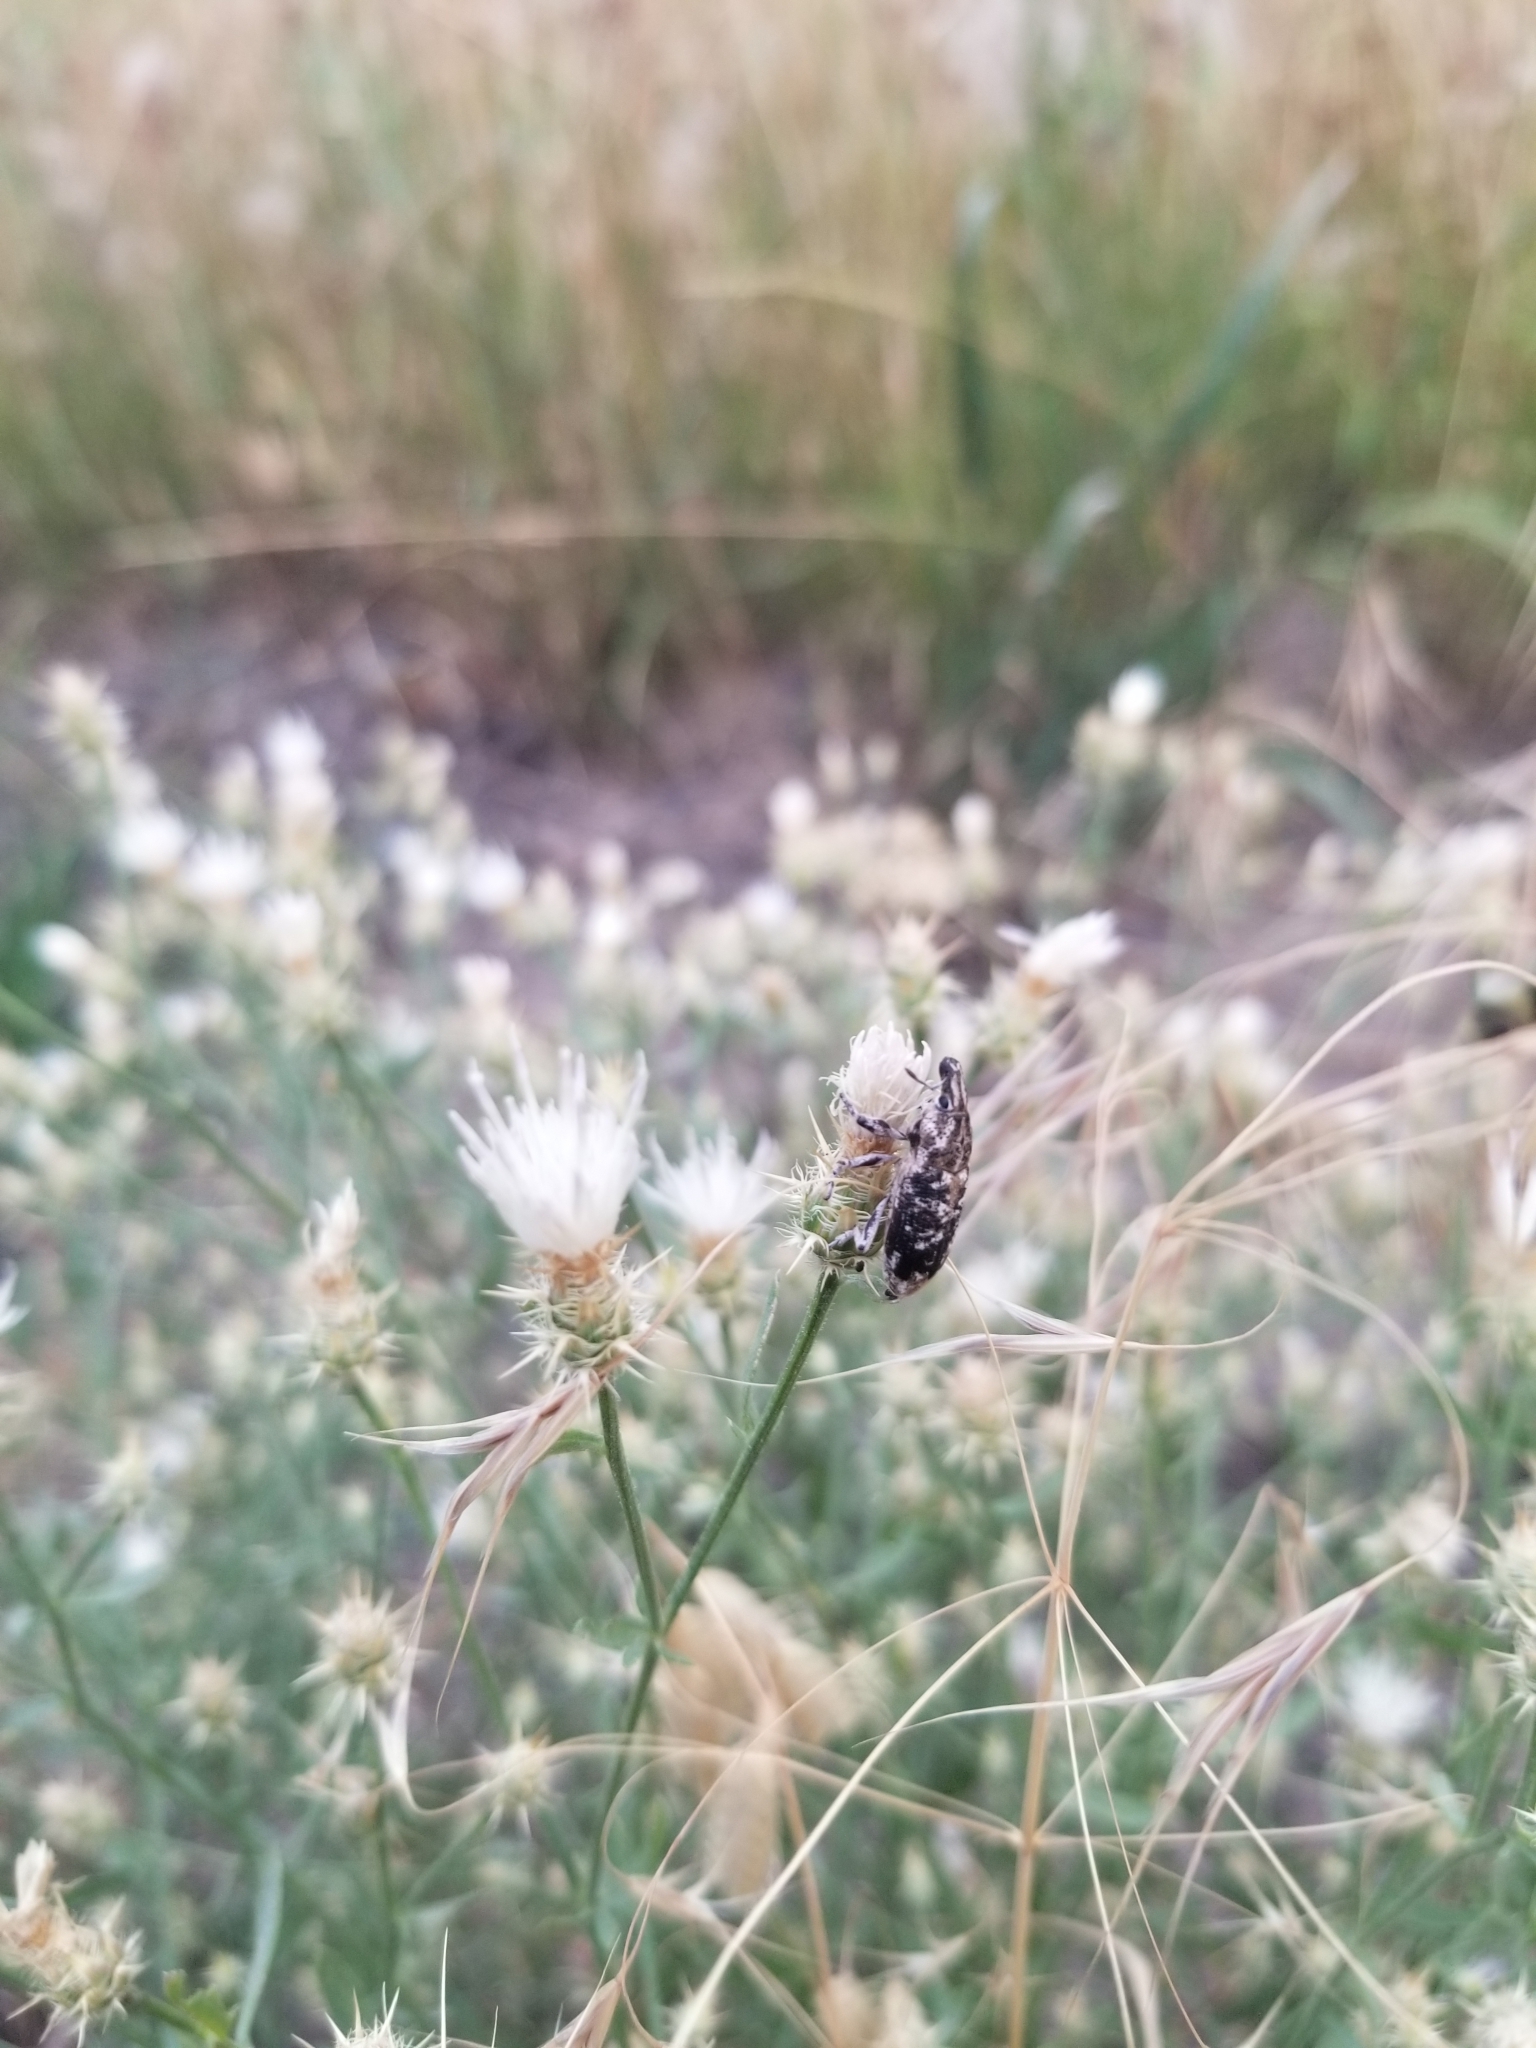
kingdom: Animalia
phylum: Arthropoda
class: Insecta
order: Coleoptera
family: Curculionidae
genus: Cleonus
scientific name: Cleonus achates
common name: Root weevil
